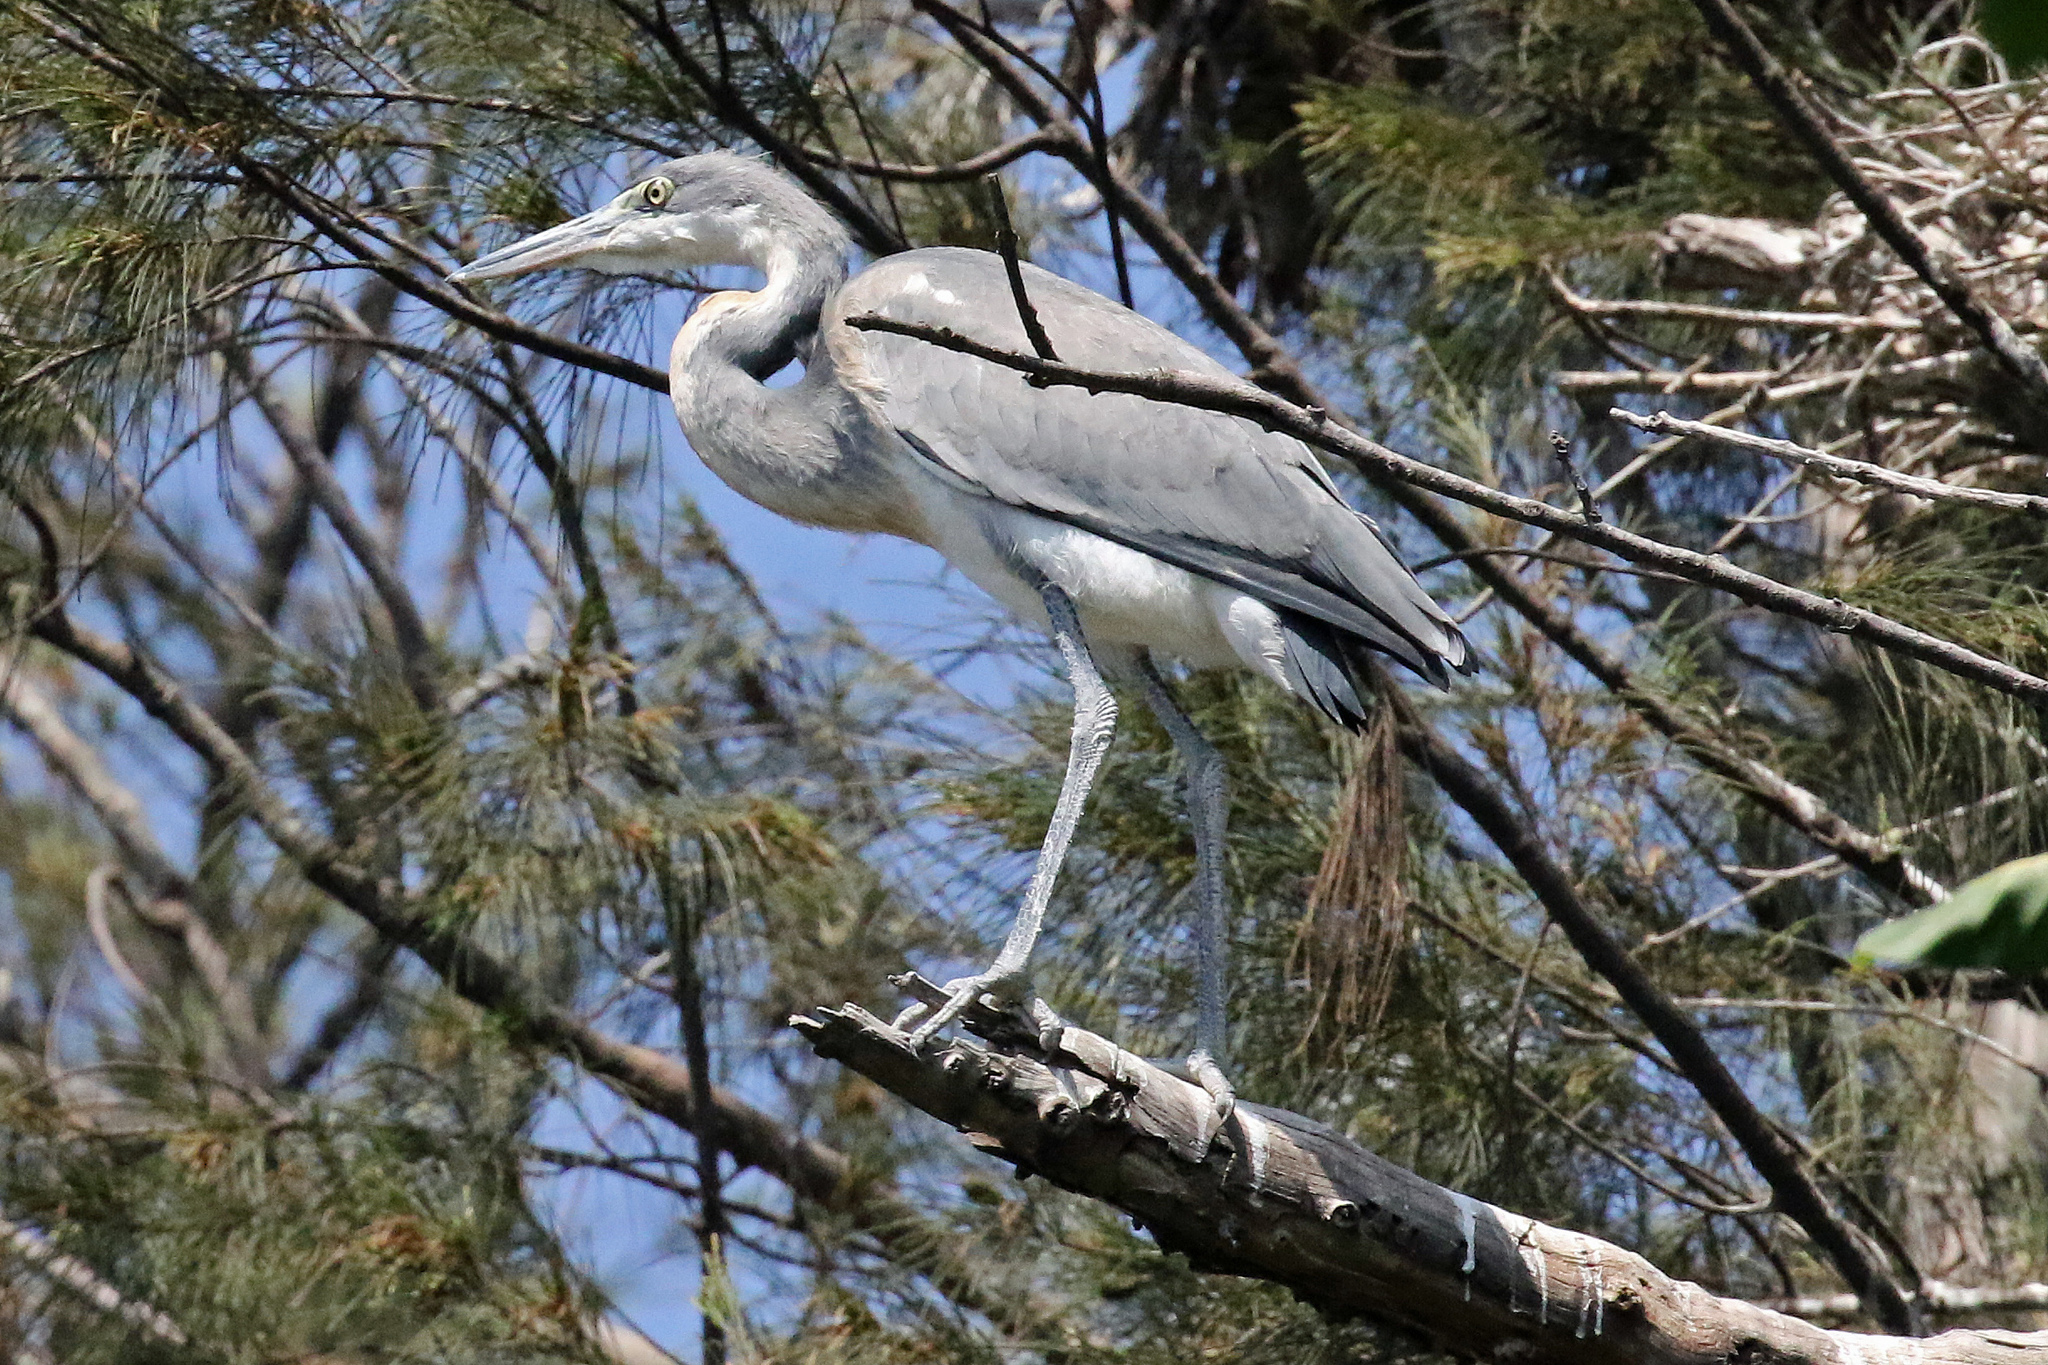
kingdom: Animalia
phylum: Chordata
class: Aves
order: Pelecaniformes
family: Ardeidae
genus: Ardea
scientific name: Ardea melanocephala
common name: Black-headed heron
